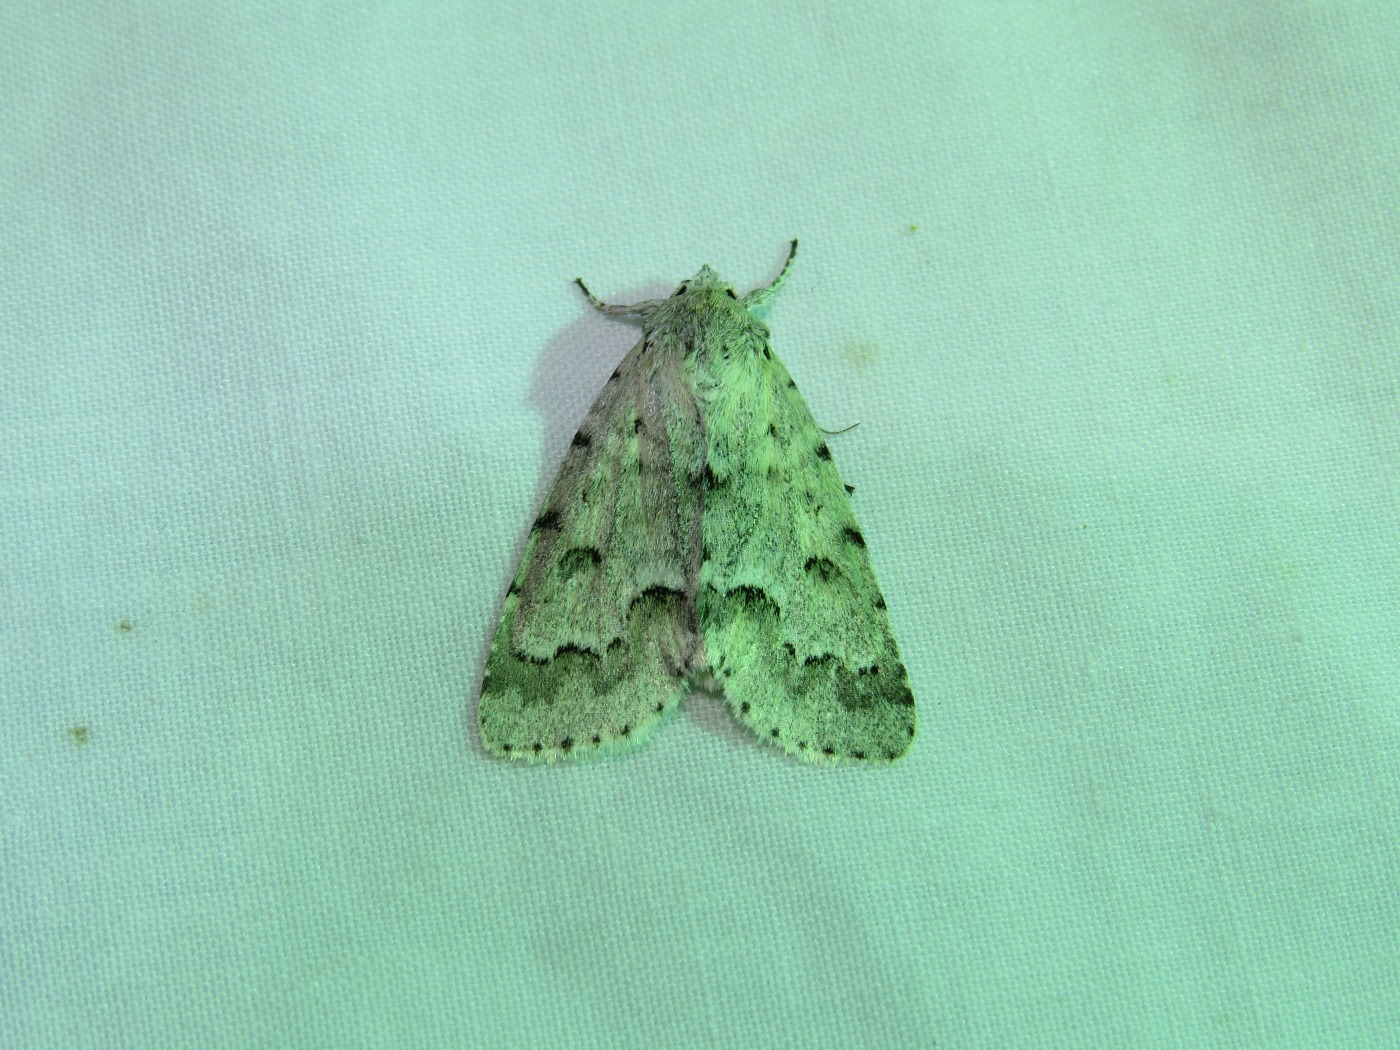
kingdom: Animalia
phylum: Arthropoda
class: Insecta
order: Lepidoptera
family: Noctuidae
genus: Acronicta
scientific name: Acronicta innotata
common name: Unmarked dagger
